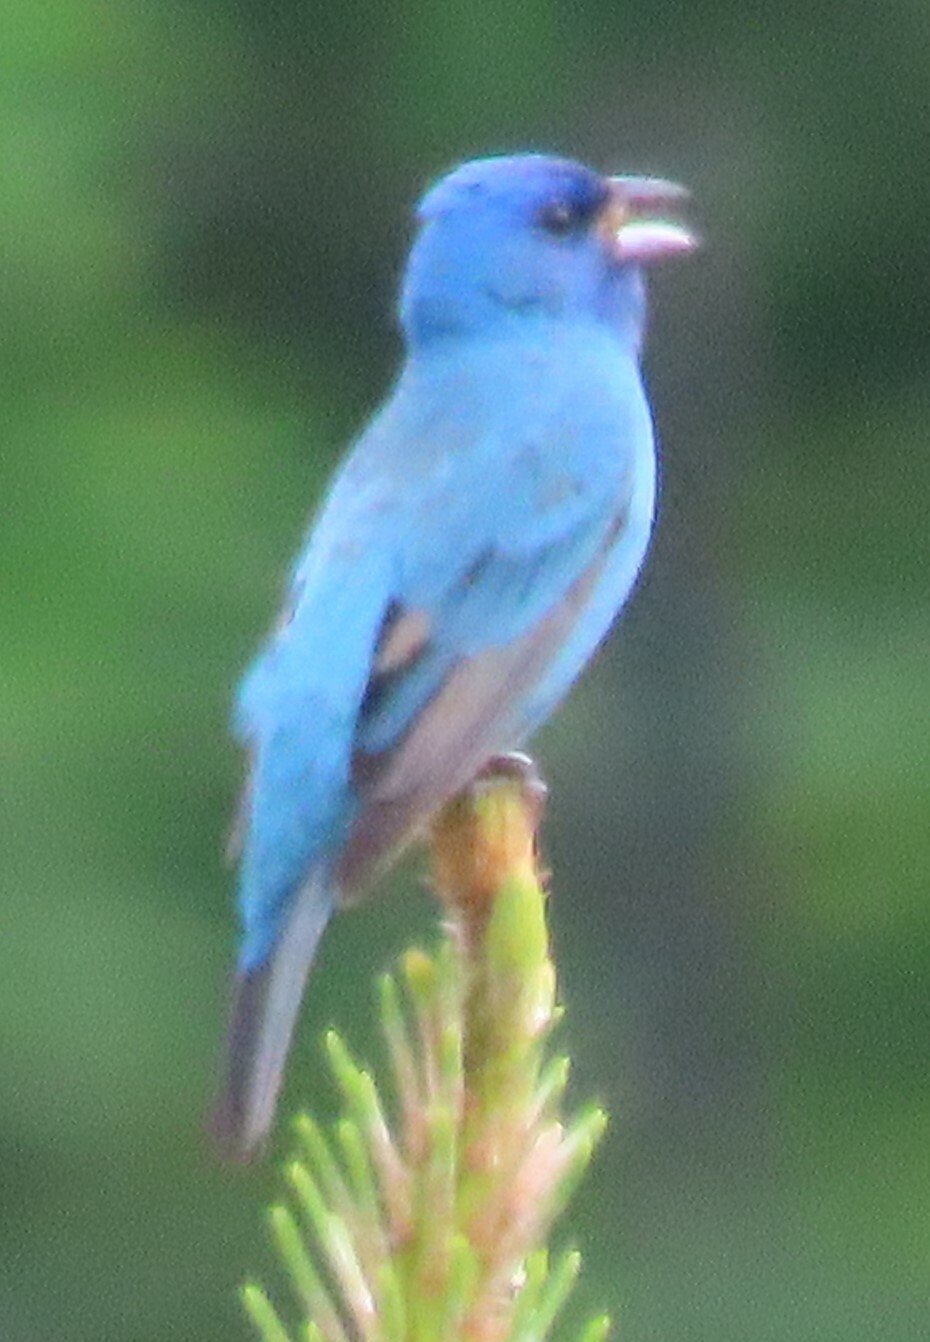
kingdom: Animalia
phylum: Chordata
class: Aves
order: Passeriformes
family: Cardinalidae
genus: Passerina
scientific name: Passerina cyanea
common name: Indigo bunting
